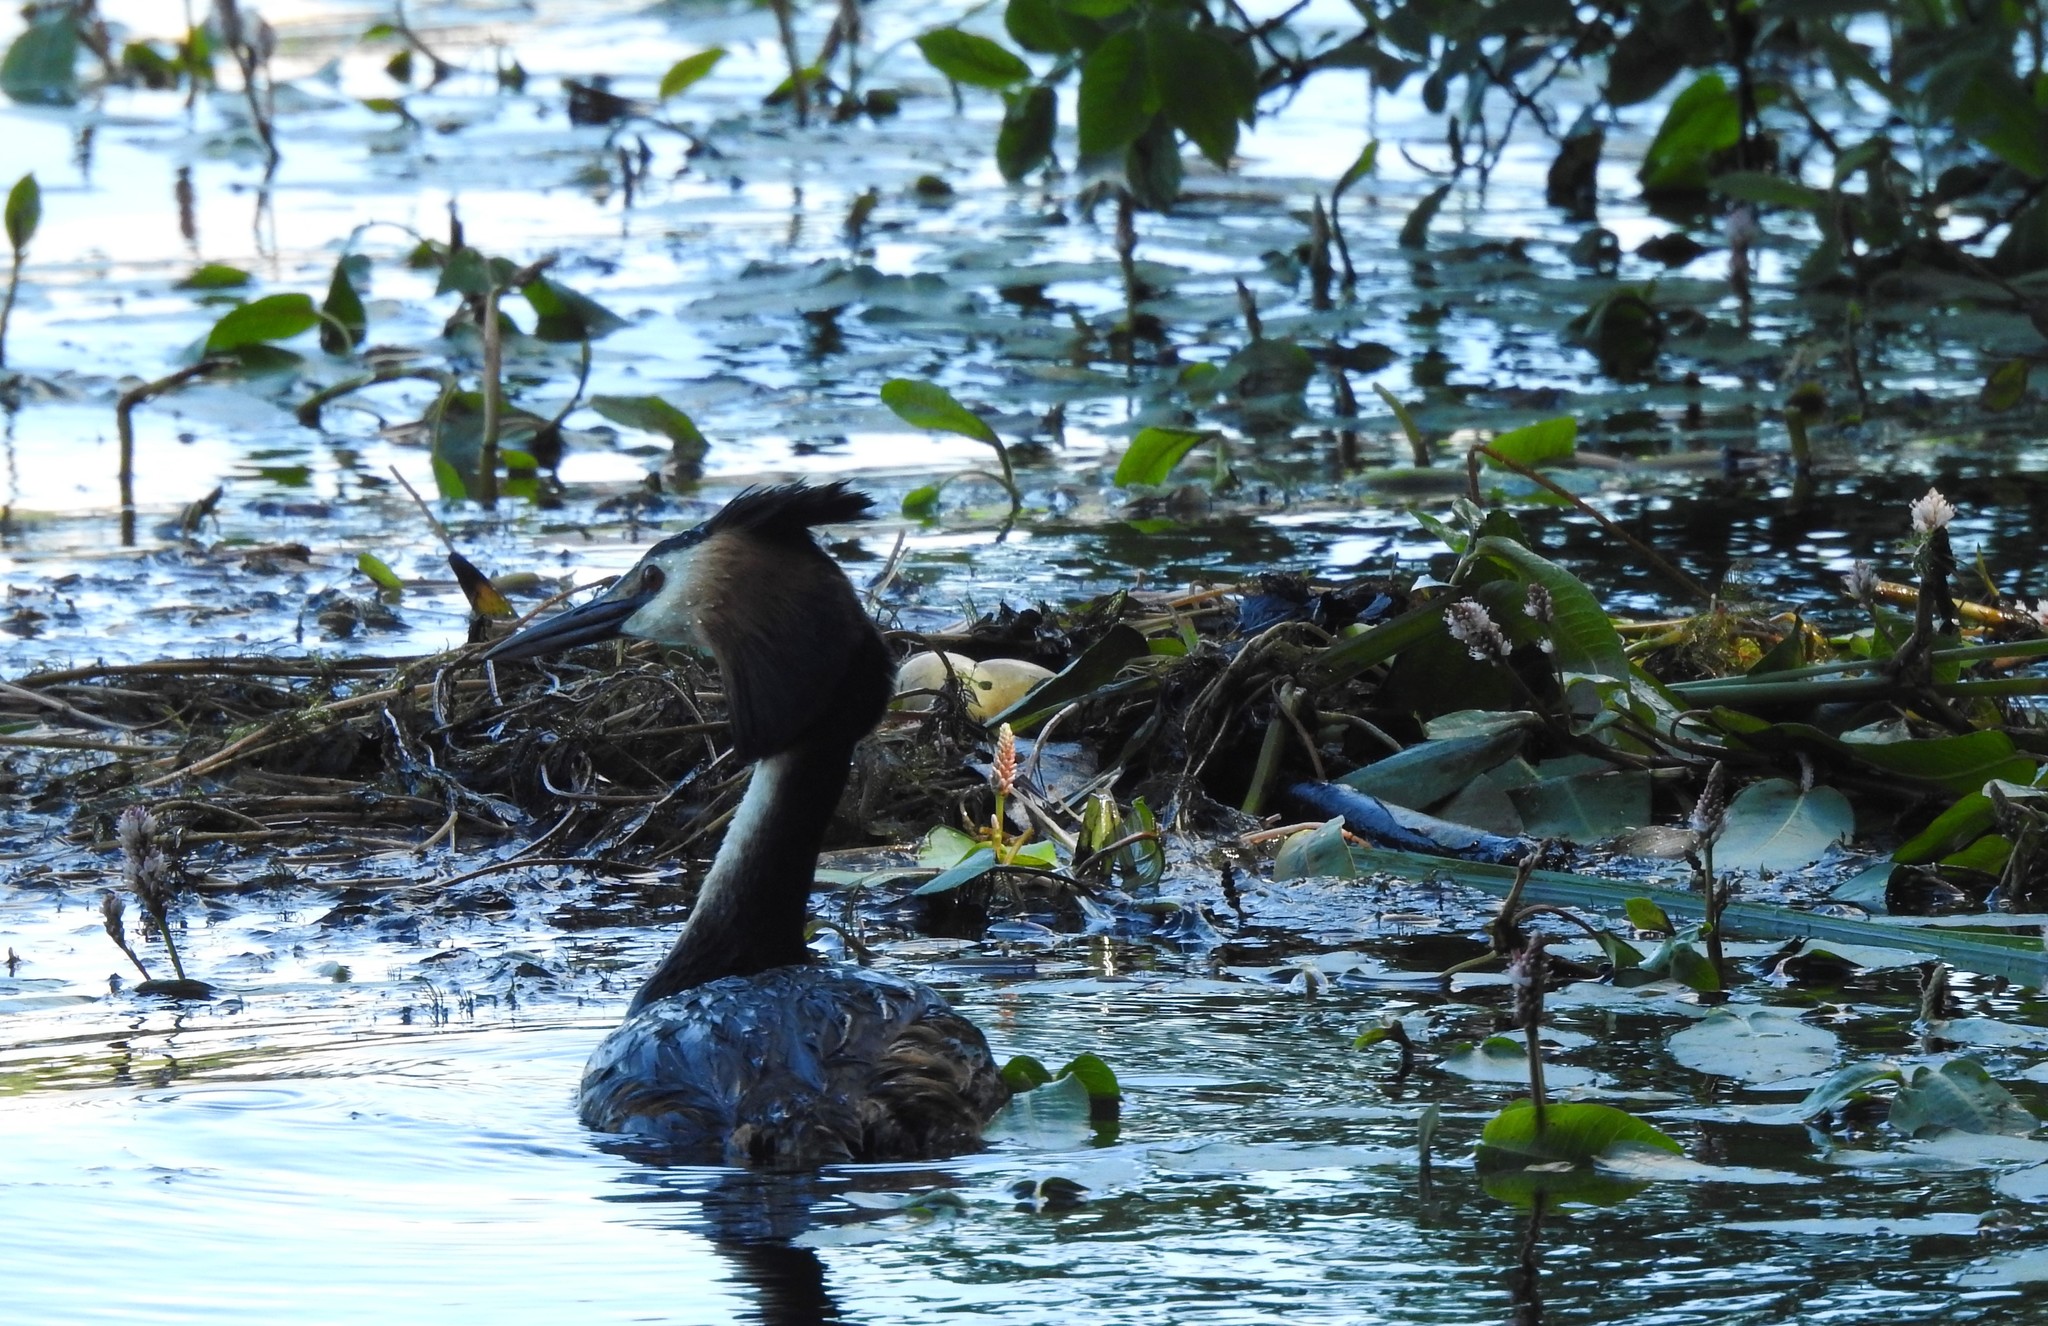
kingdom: Animalia
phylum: Chordata
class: Aves
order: Podicipediformes
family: Podicipedidae
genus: Podiceps
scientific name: Podiceps cristatus
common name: Great crested grebe
